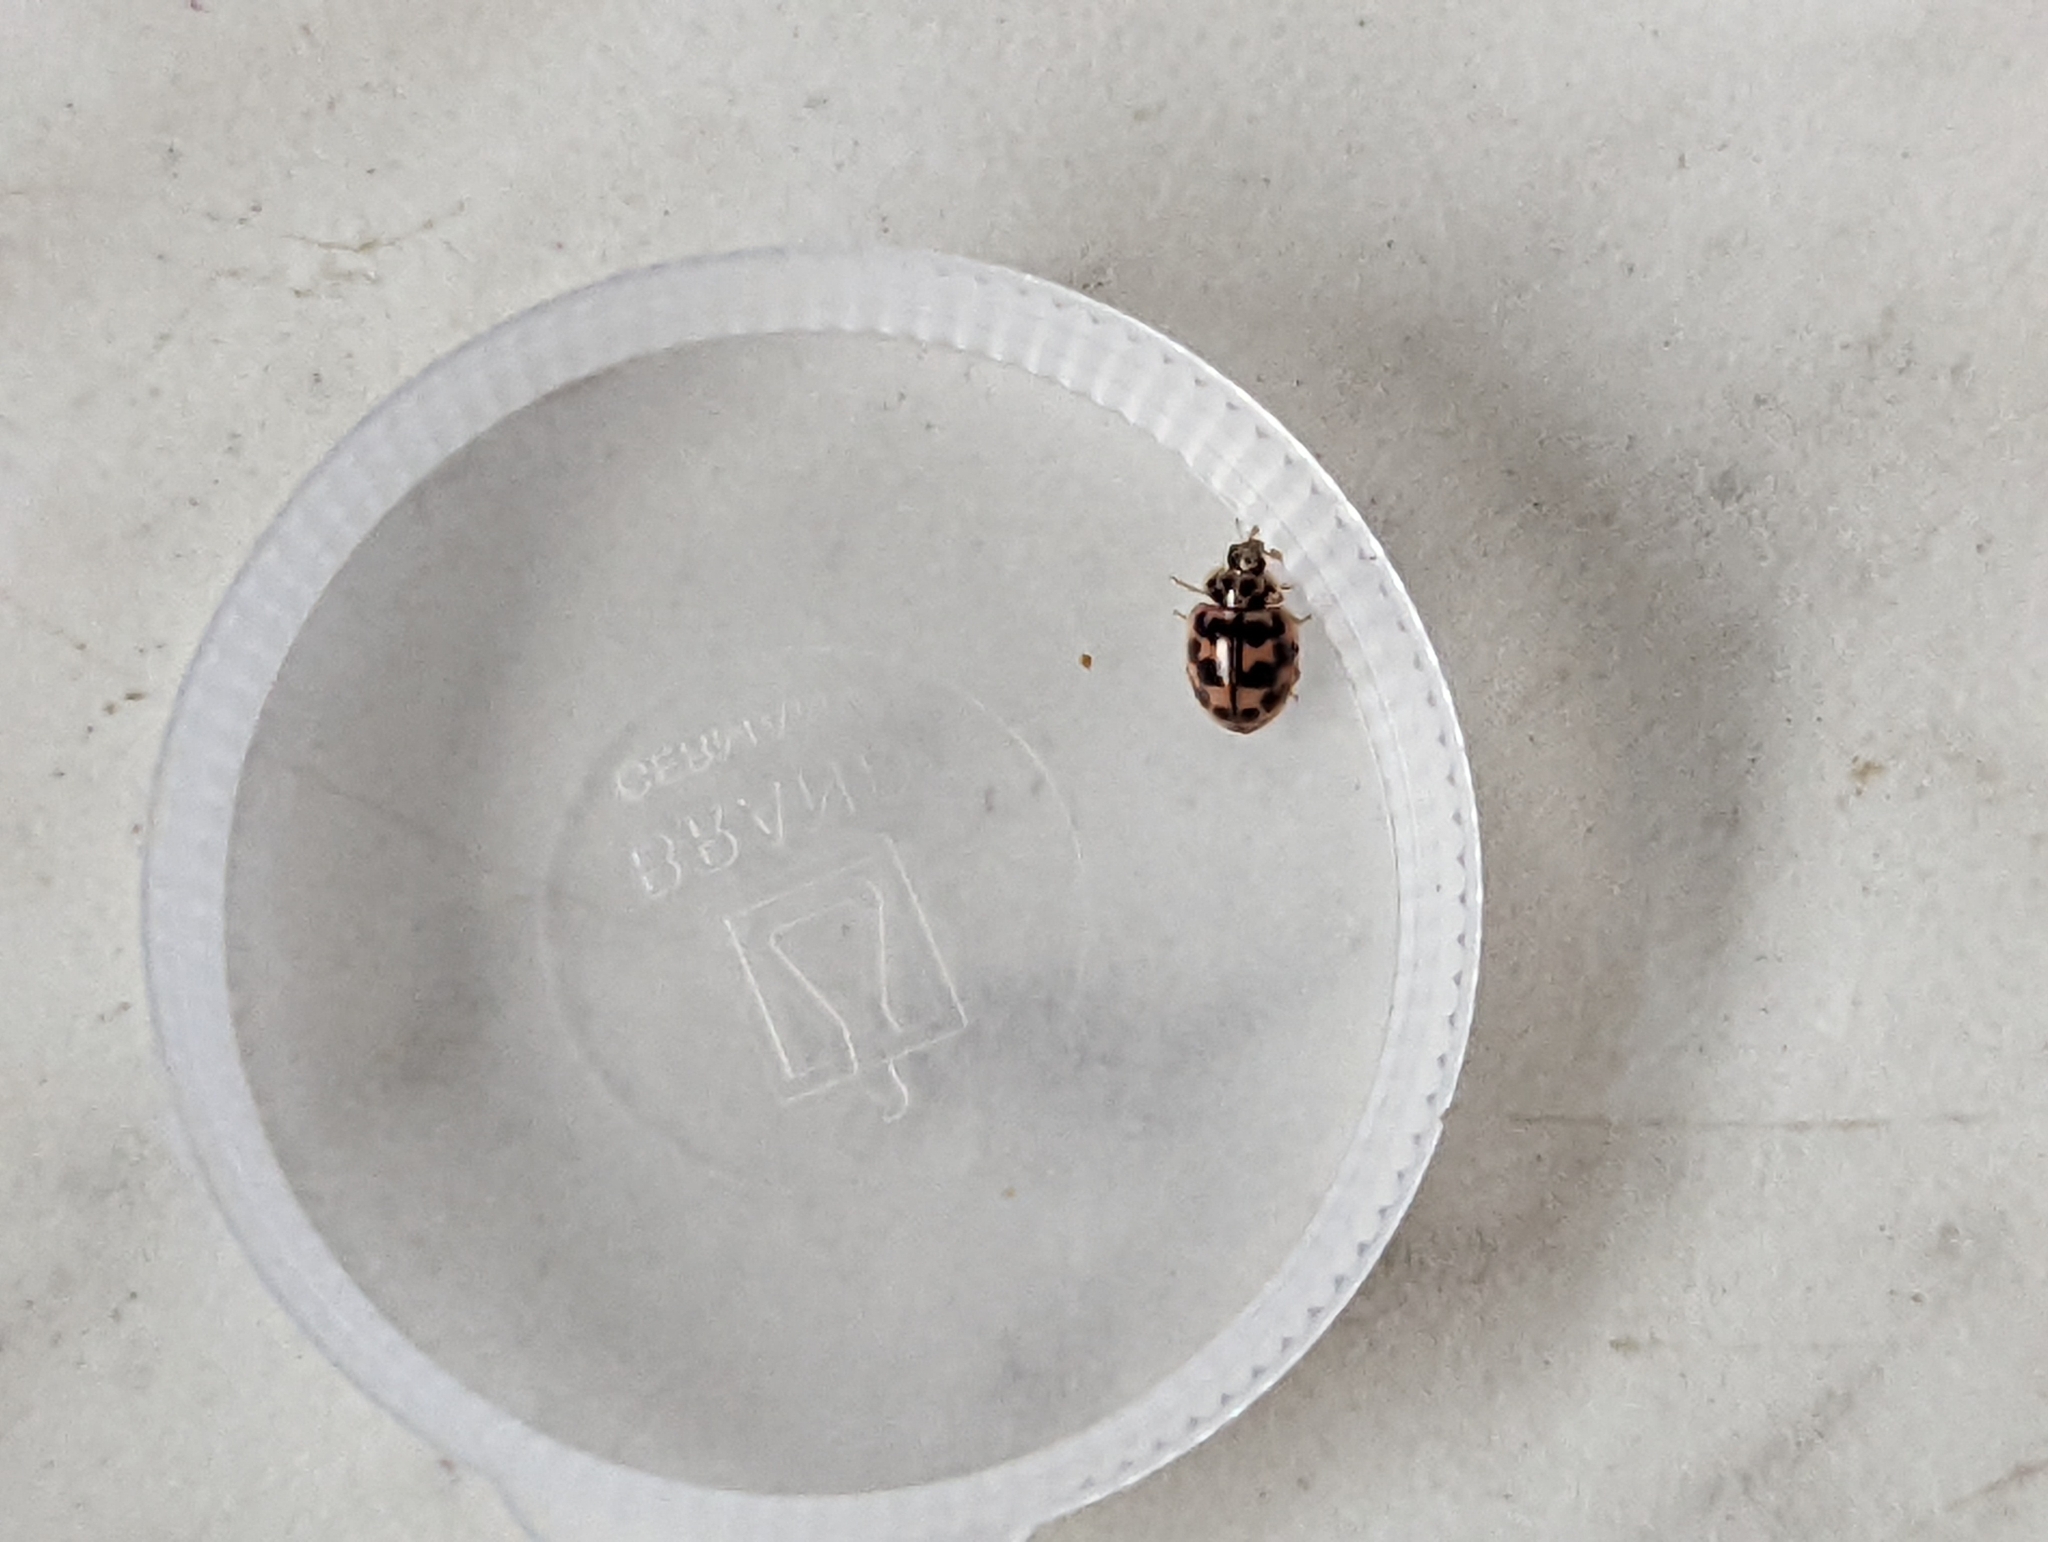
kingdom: Animalia
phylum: Arthropoda
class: Insecta
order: Coleoptera
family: Coccinellidae
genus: Oenopia
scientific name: Oenopia conglobata
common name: Ladybird beetle
